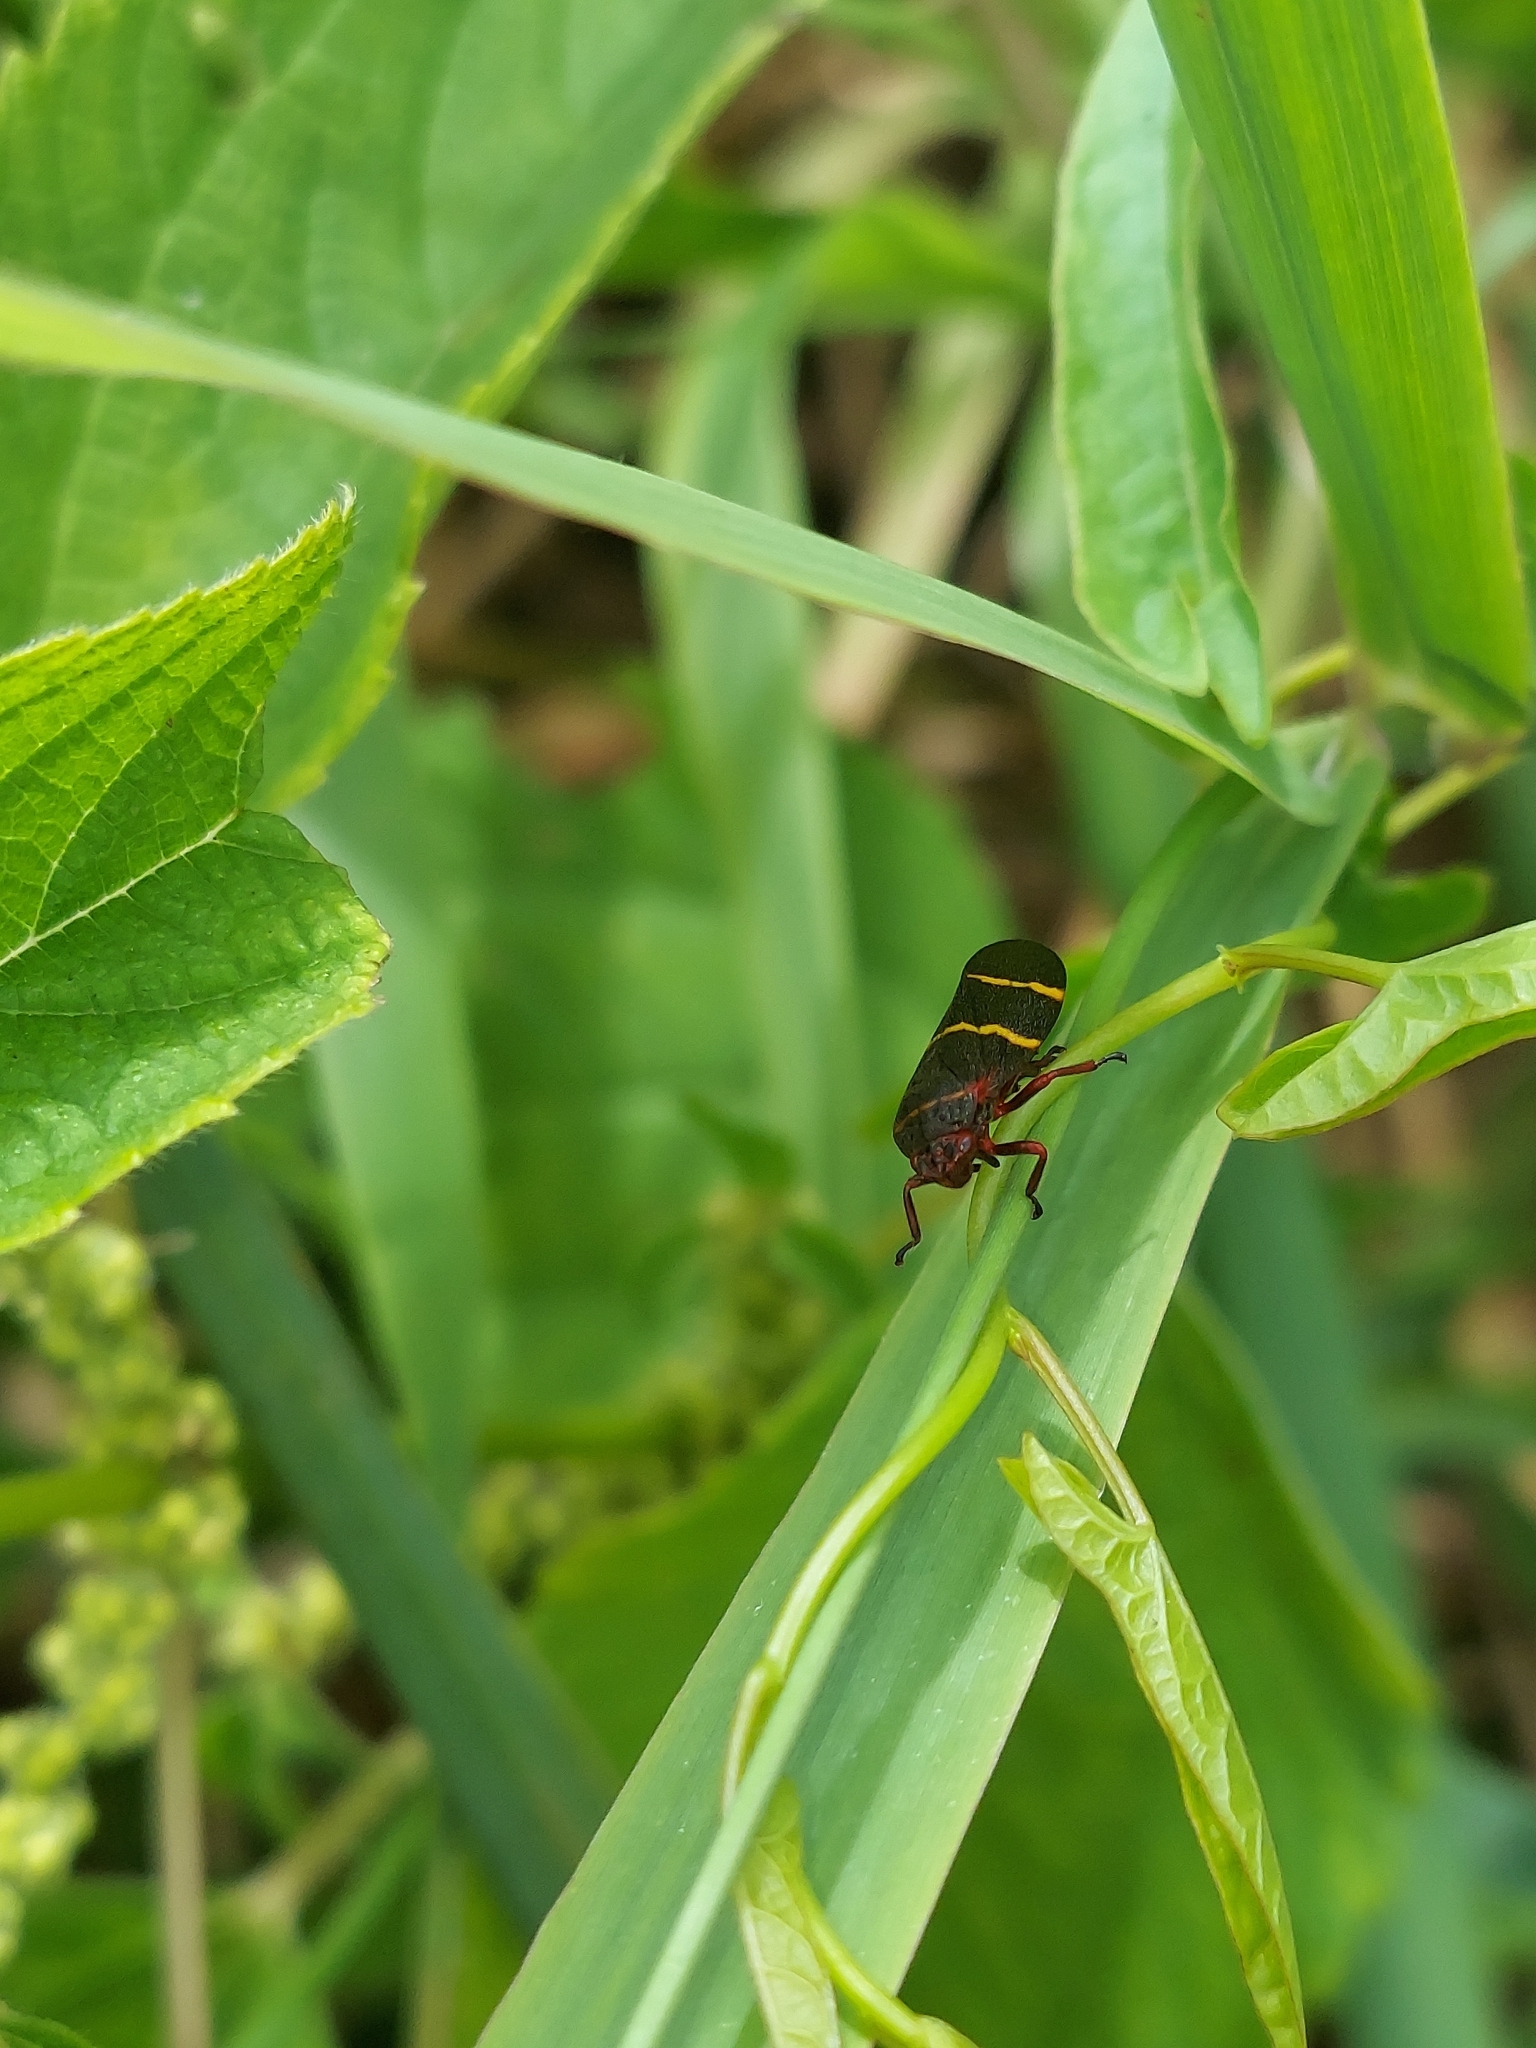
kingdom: Animalia
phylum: Arthropoda
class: Insecta
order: Hemiptera
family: Cercopidae
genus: Prosapia
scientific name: Prosapia bicincta
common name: Twolined spittlebug
